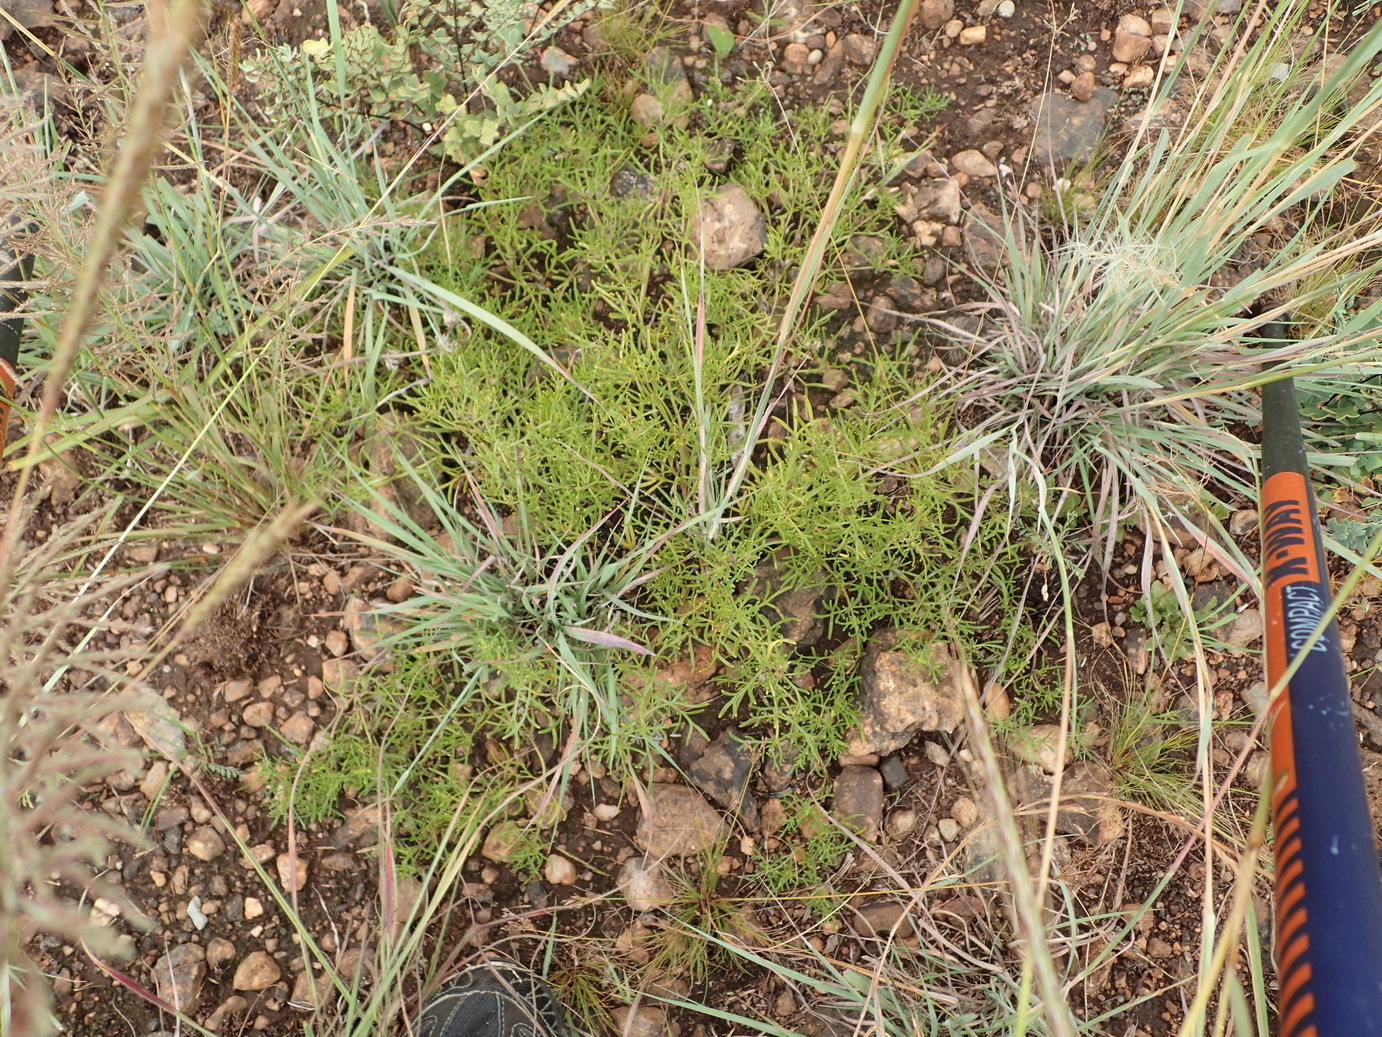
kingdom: Plantae
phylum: Tracheophyta
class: Magnoliopsida
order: Vahliales
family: Vahliaceae
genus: Vahlia
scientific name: Vahlia capensis
